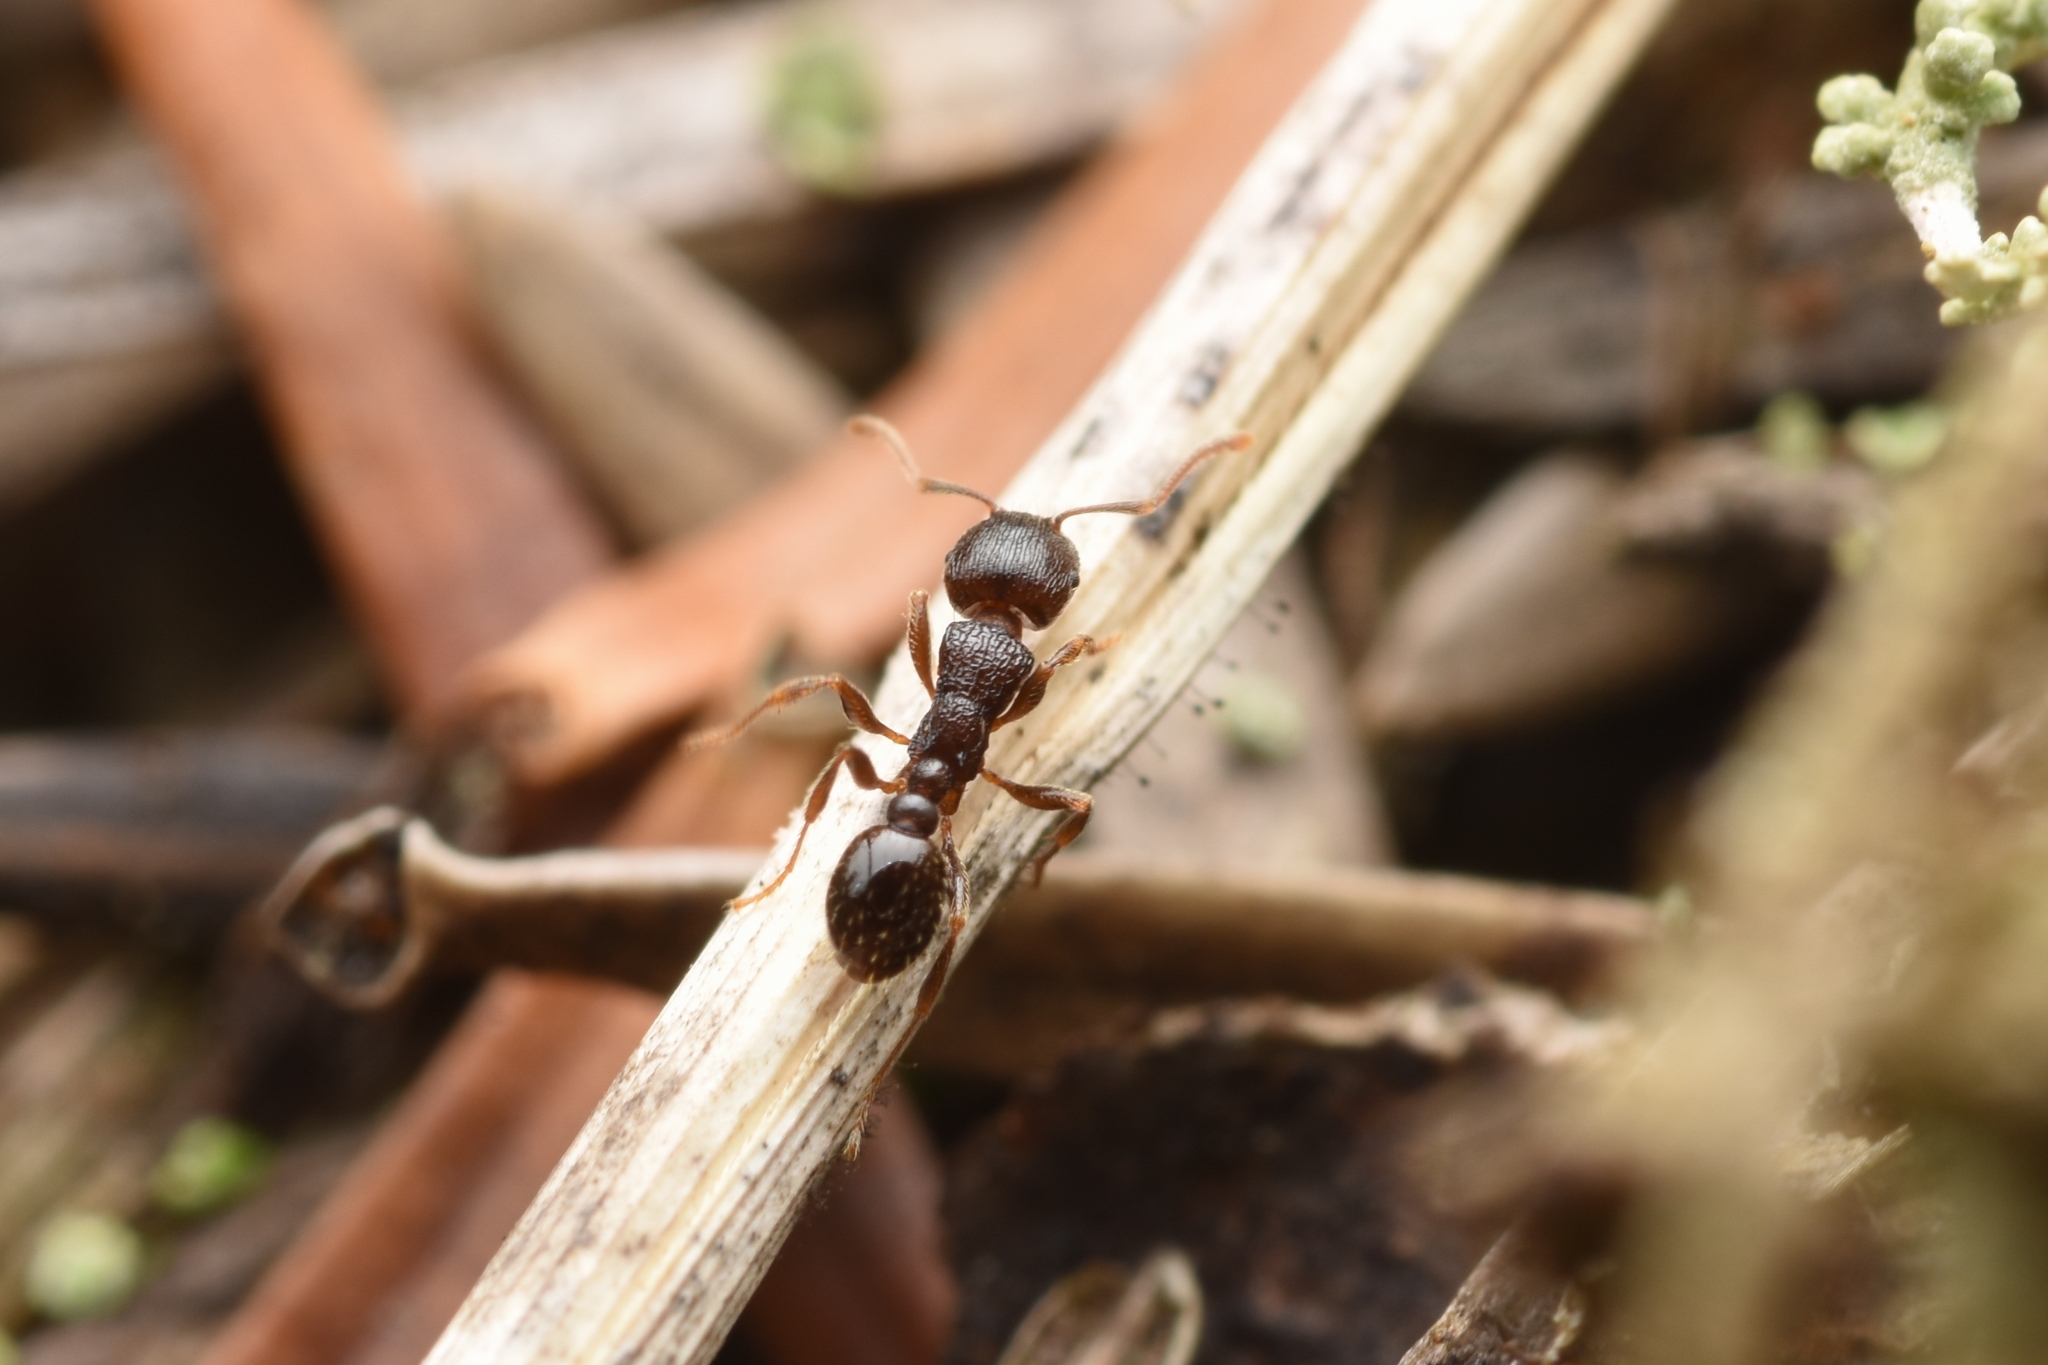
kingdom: Animalia
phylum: Arthropoda
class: Insecta
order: Hymenoptera
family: Formicidae
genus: Tetramorium
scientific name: Tetramorium tsushimae
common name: Ant
